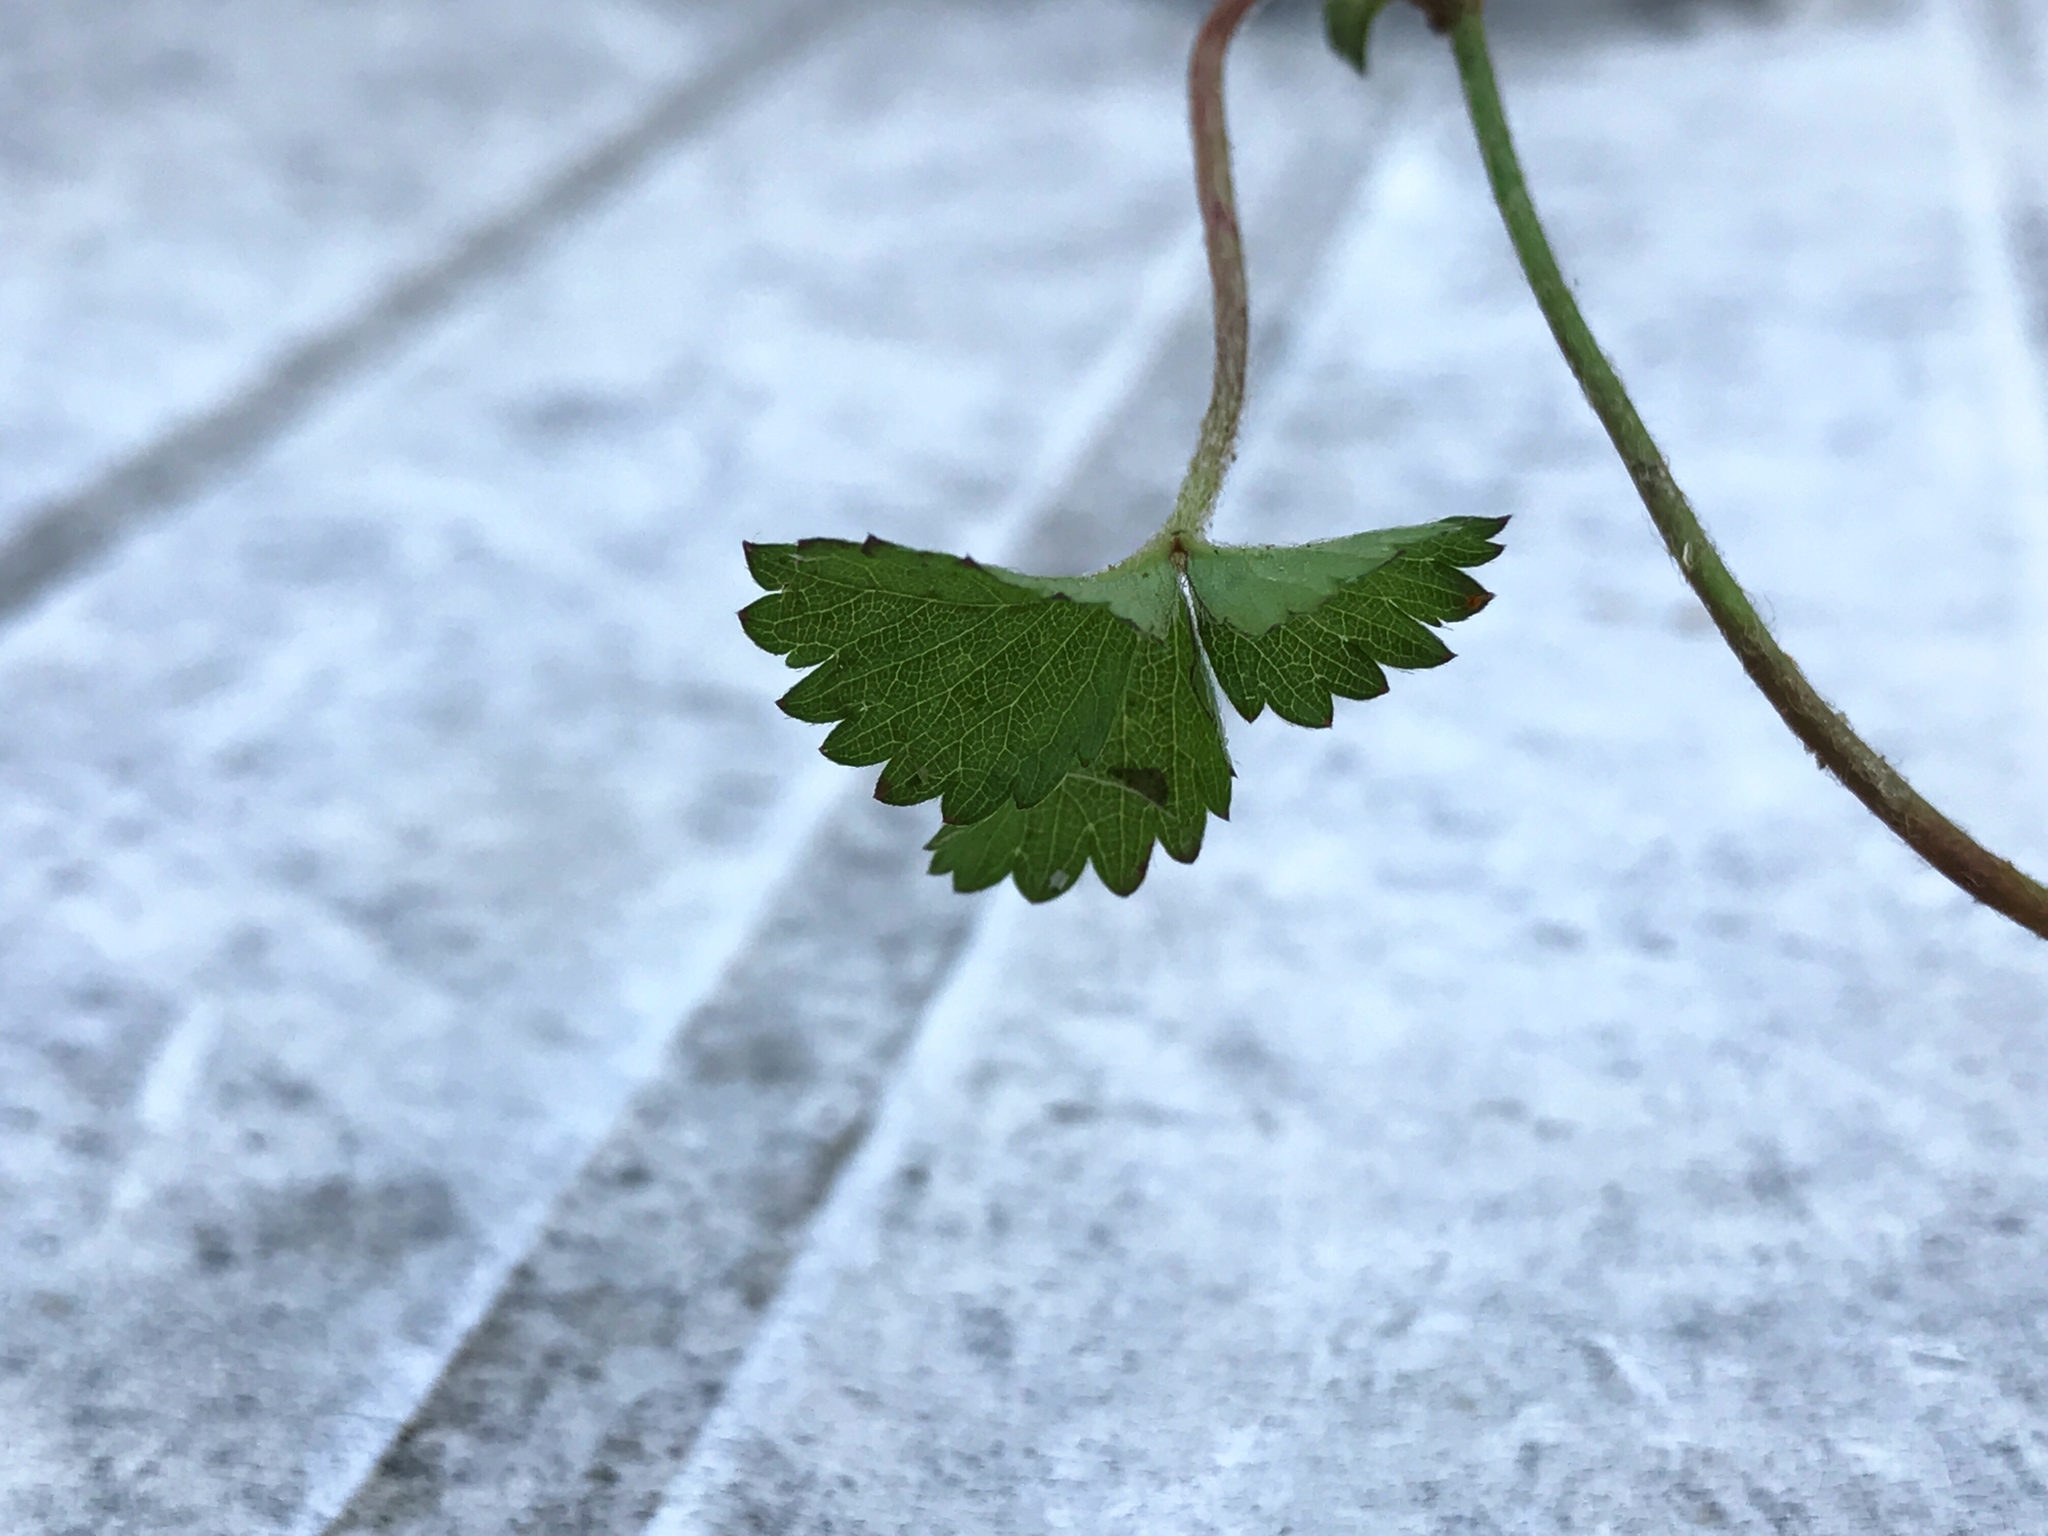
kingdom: Plantae
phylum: Tracheophyta
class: Magnoliopsida
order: Rosales
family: Rosaceae
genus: Potentilla
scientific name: Potentilla indica
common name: Yellow-flowered strawberry
